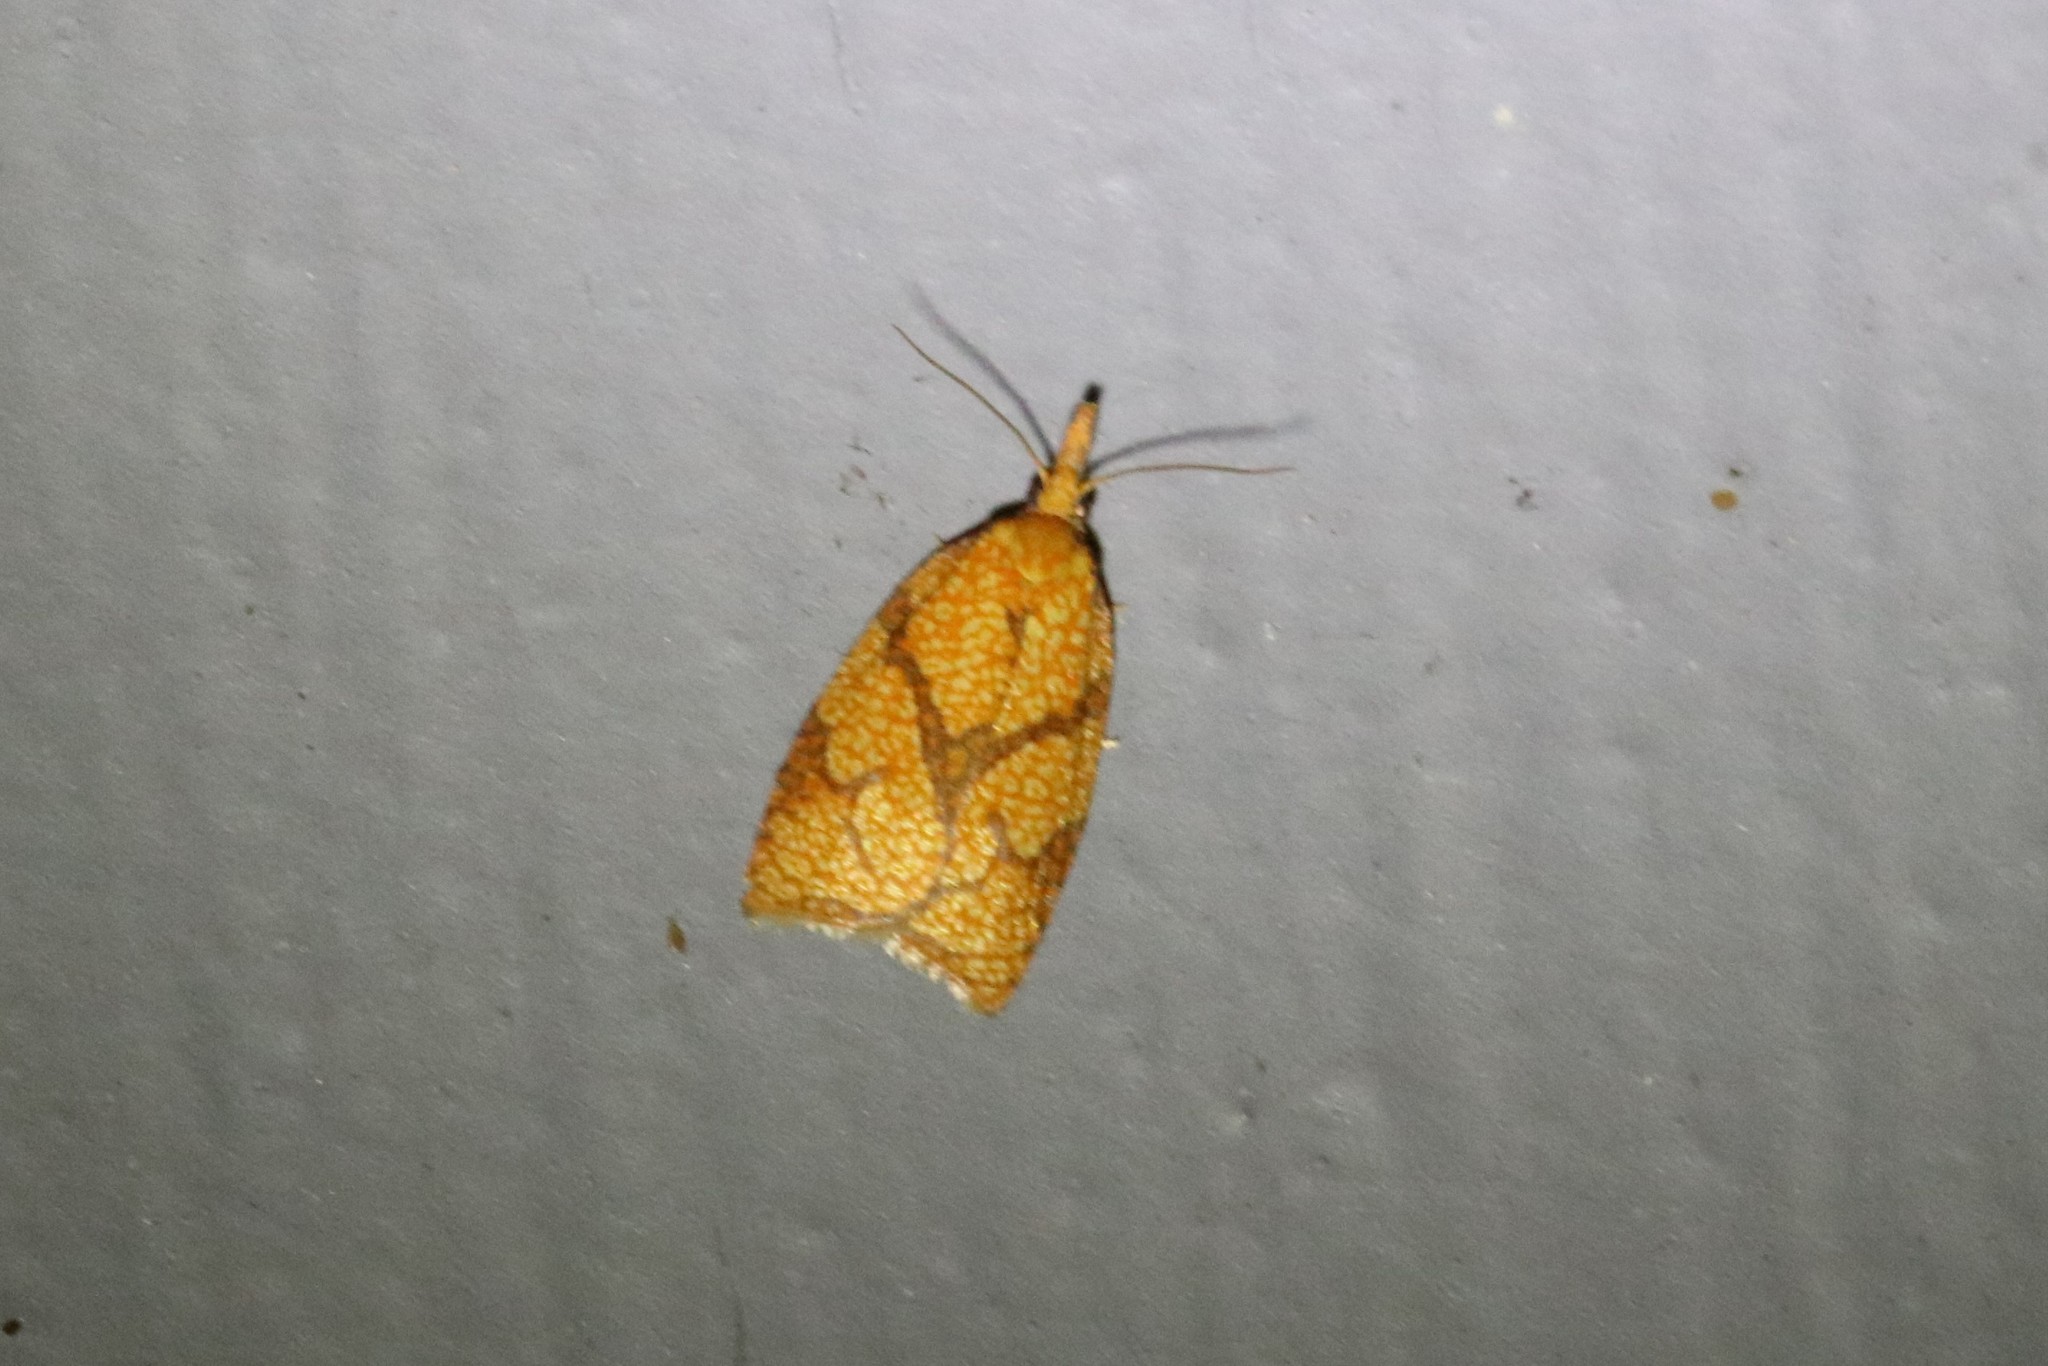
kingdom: Animalia
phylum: Arthropoda
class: Insecta
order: Lepidoptera
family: Tortricidae
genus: Cenopis
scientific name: Cenopis reticulatana
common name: Reticulated fruitworm moth
